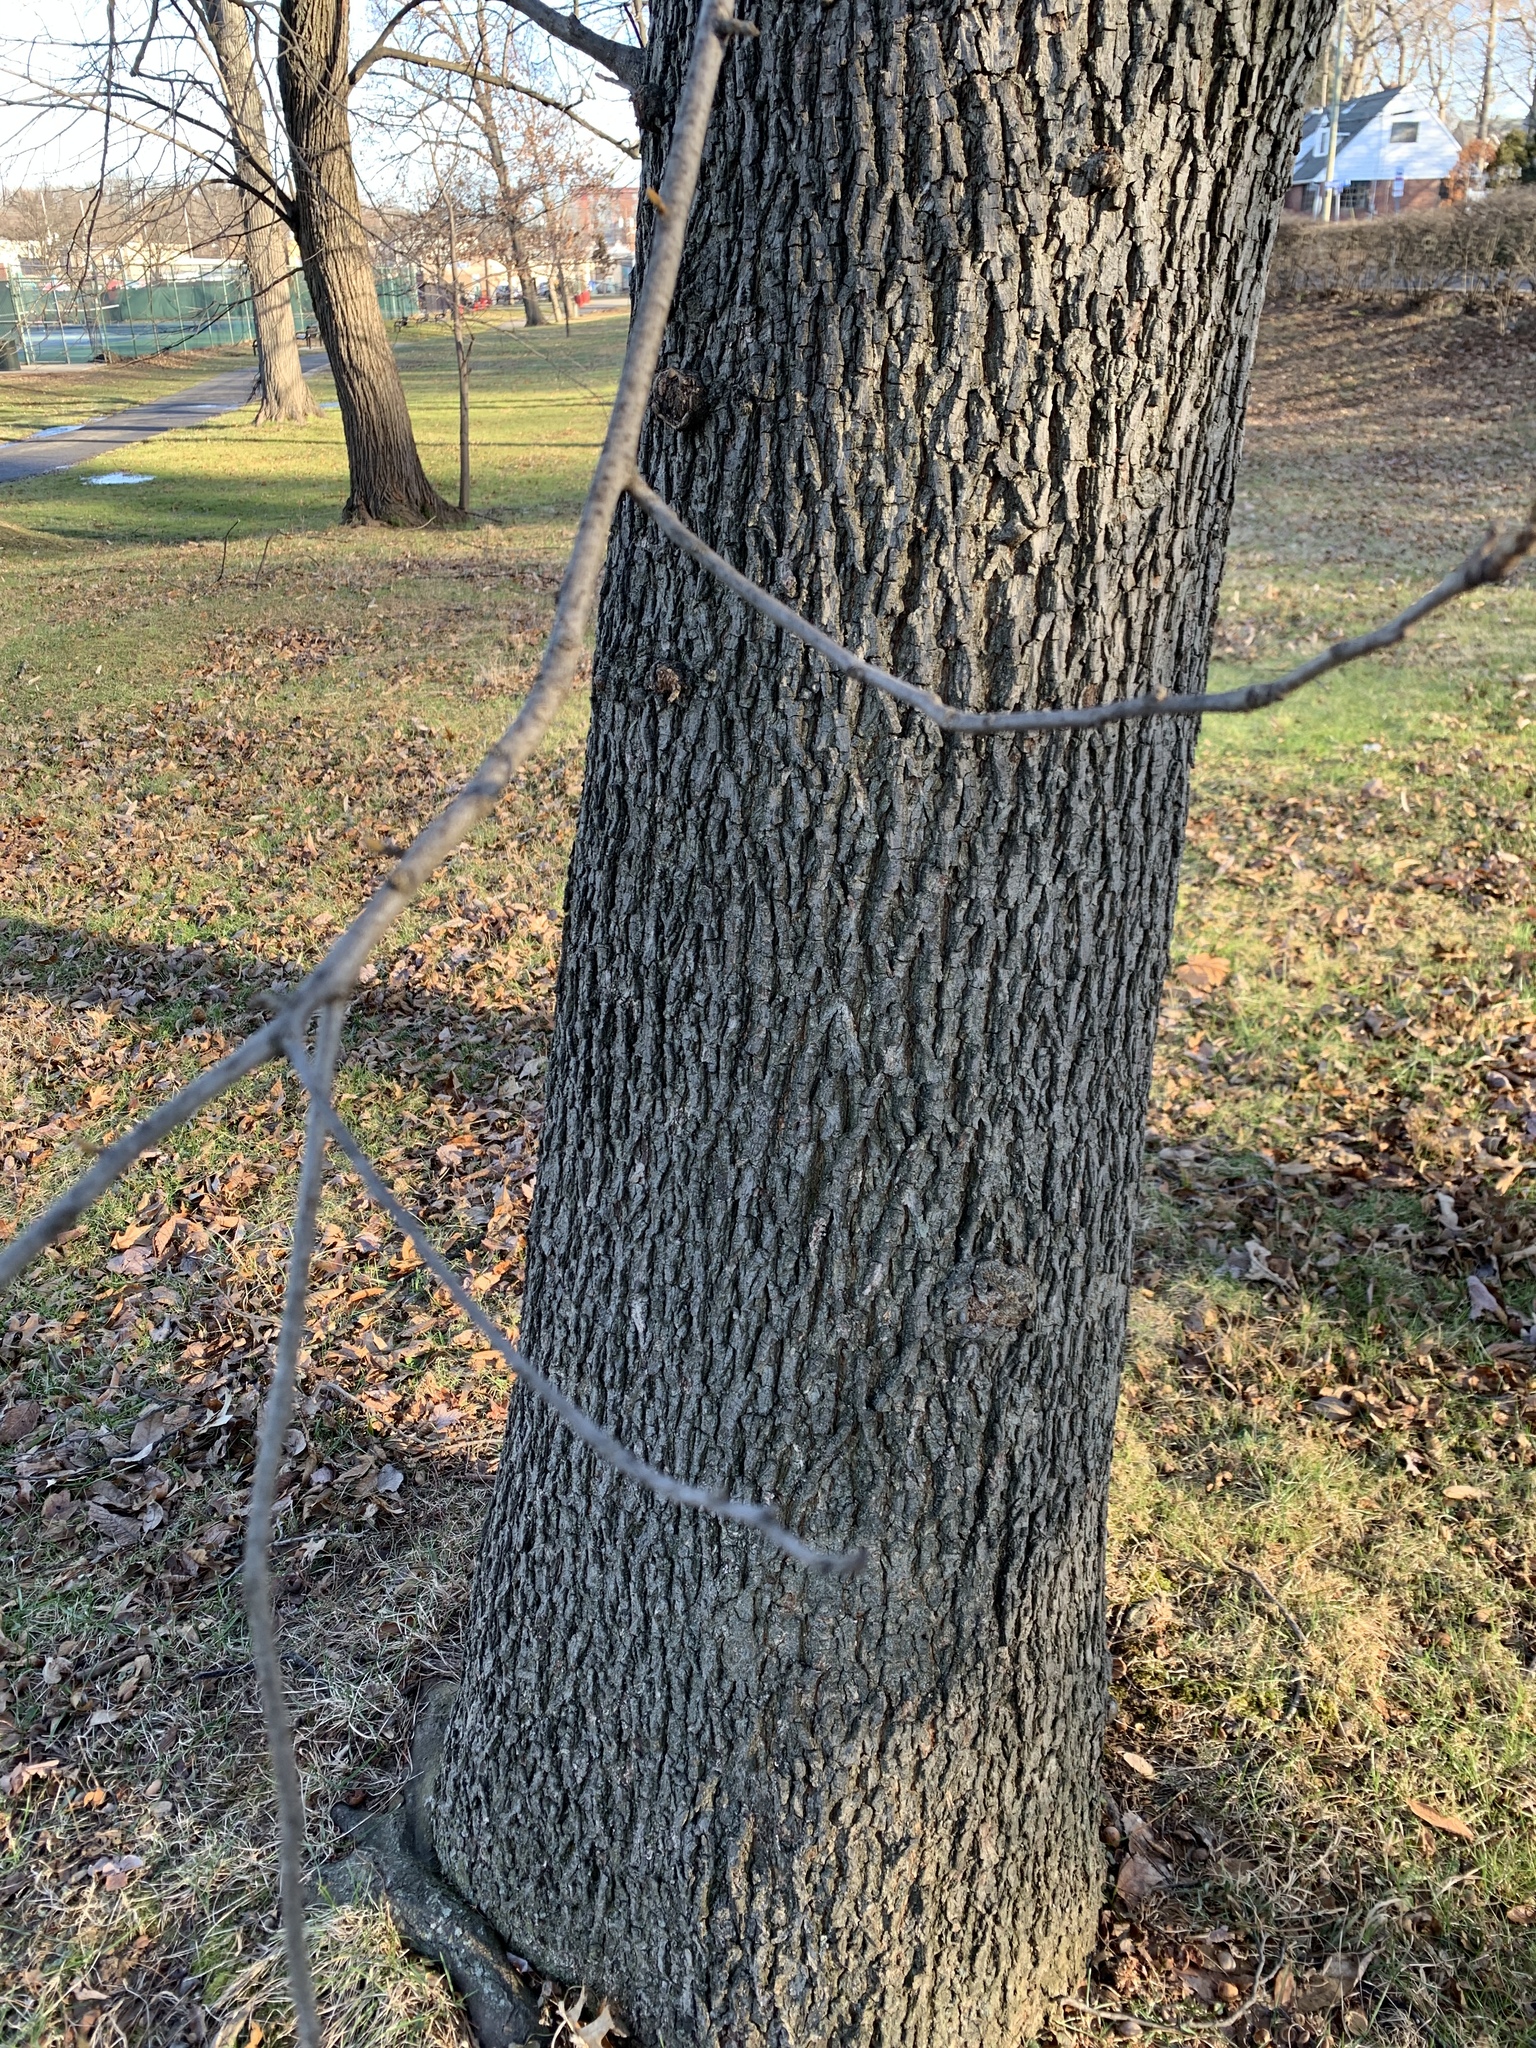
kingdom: Plantae
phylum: Tracheophyta
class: Magnoliopsida
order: Fagales
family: Juglandaceae
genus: Carya
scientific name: Carya cordiformis
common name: Bitternut hickory
